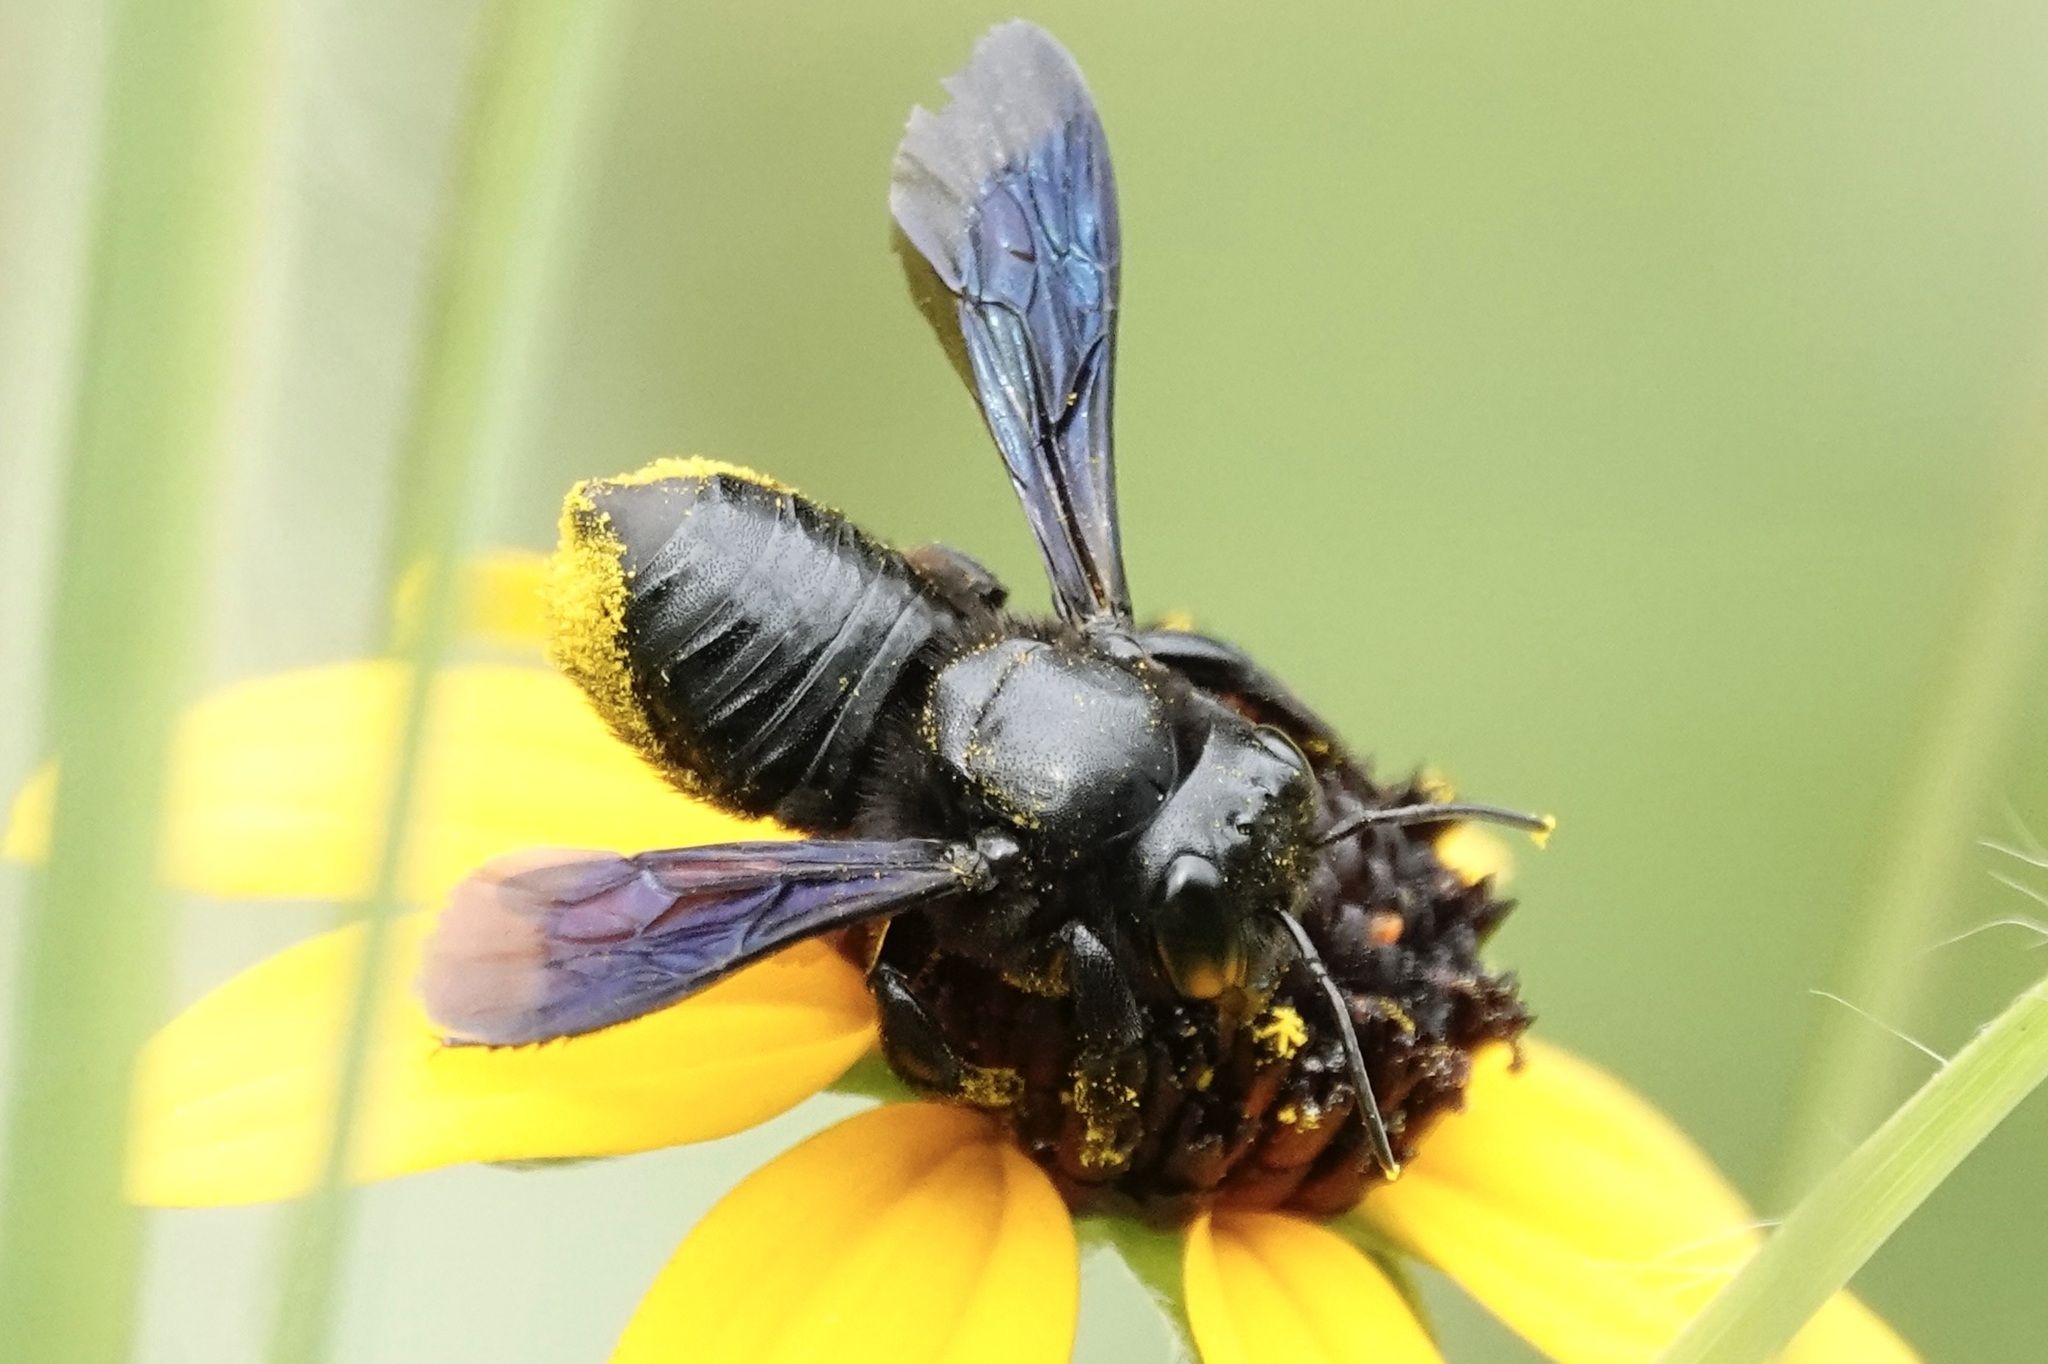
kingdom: Animalia
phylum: Arthropoda
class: Insecta
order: Hymenoptera
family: Megachilidae
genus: Megachile
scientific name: Megachile xylocopoides
